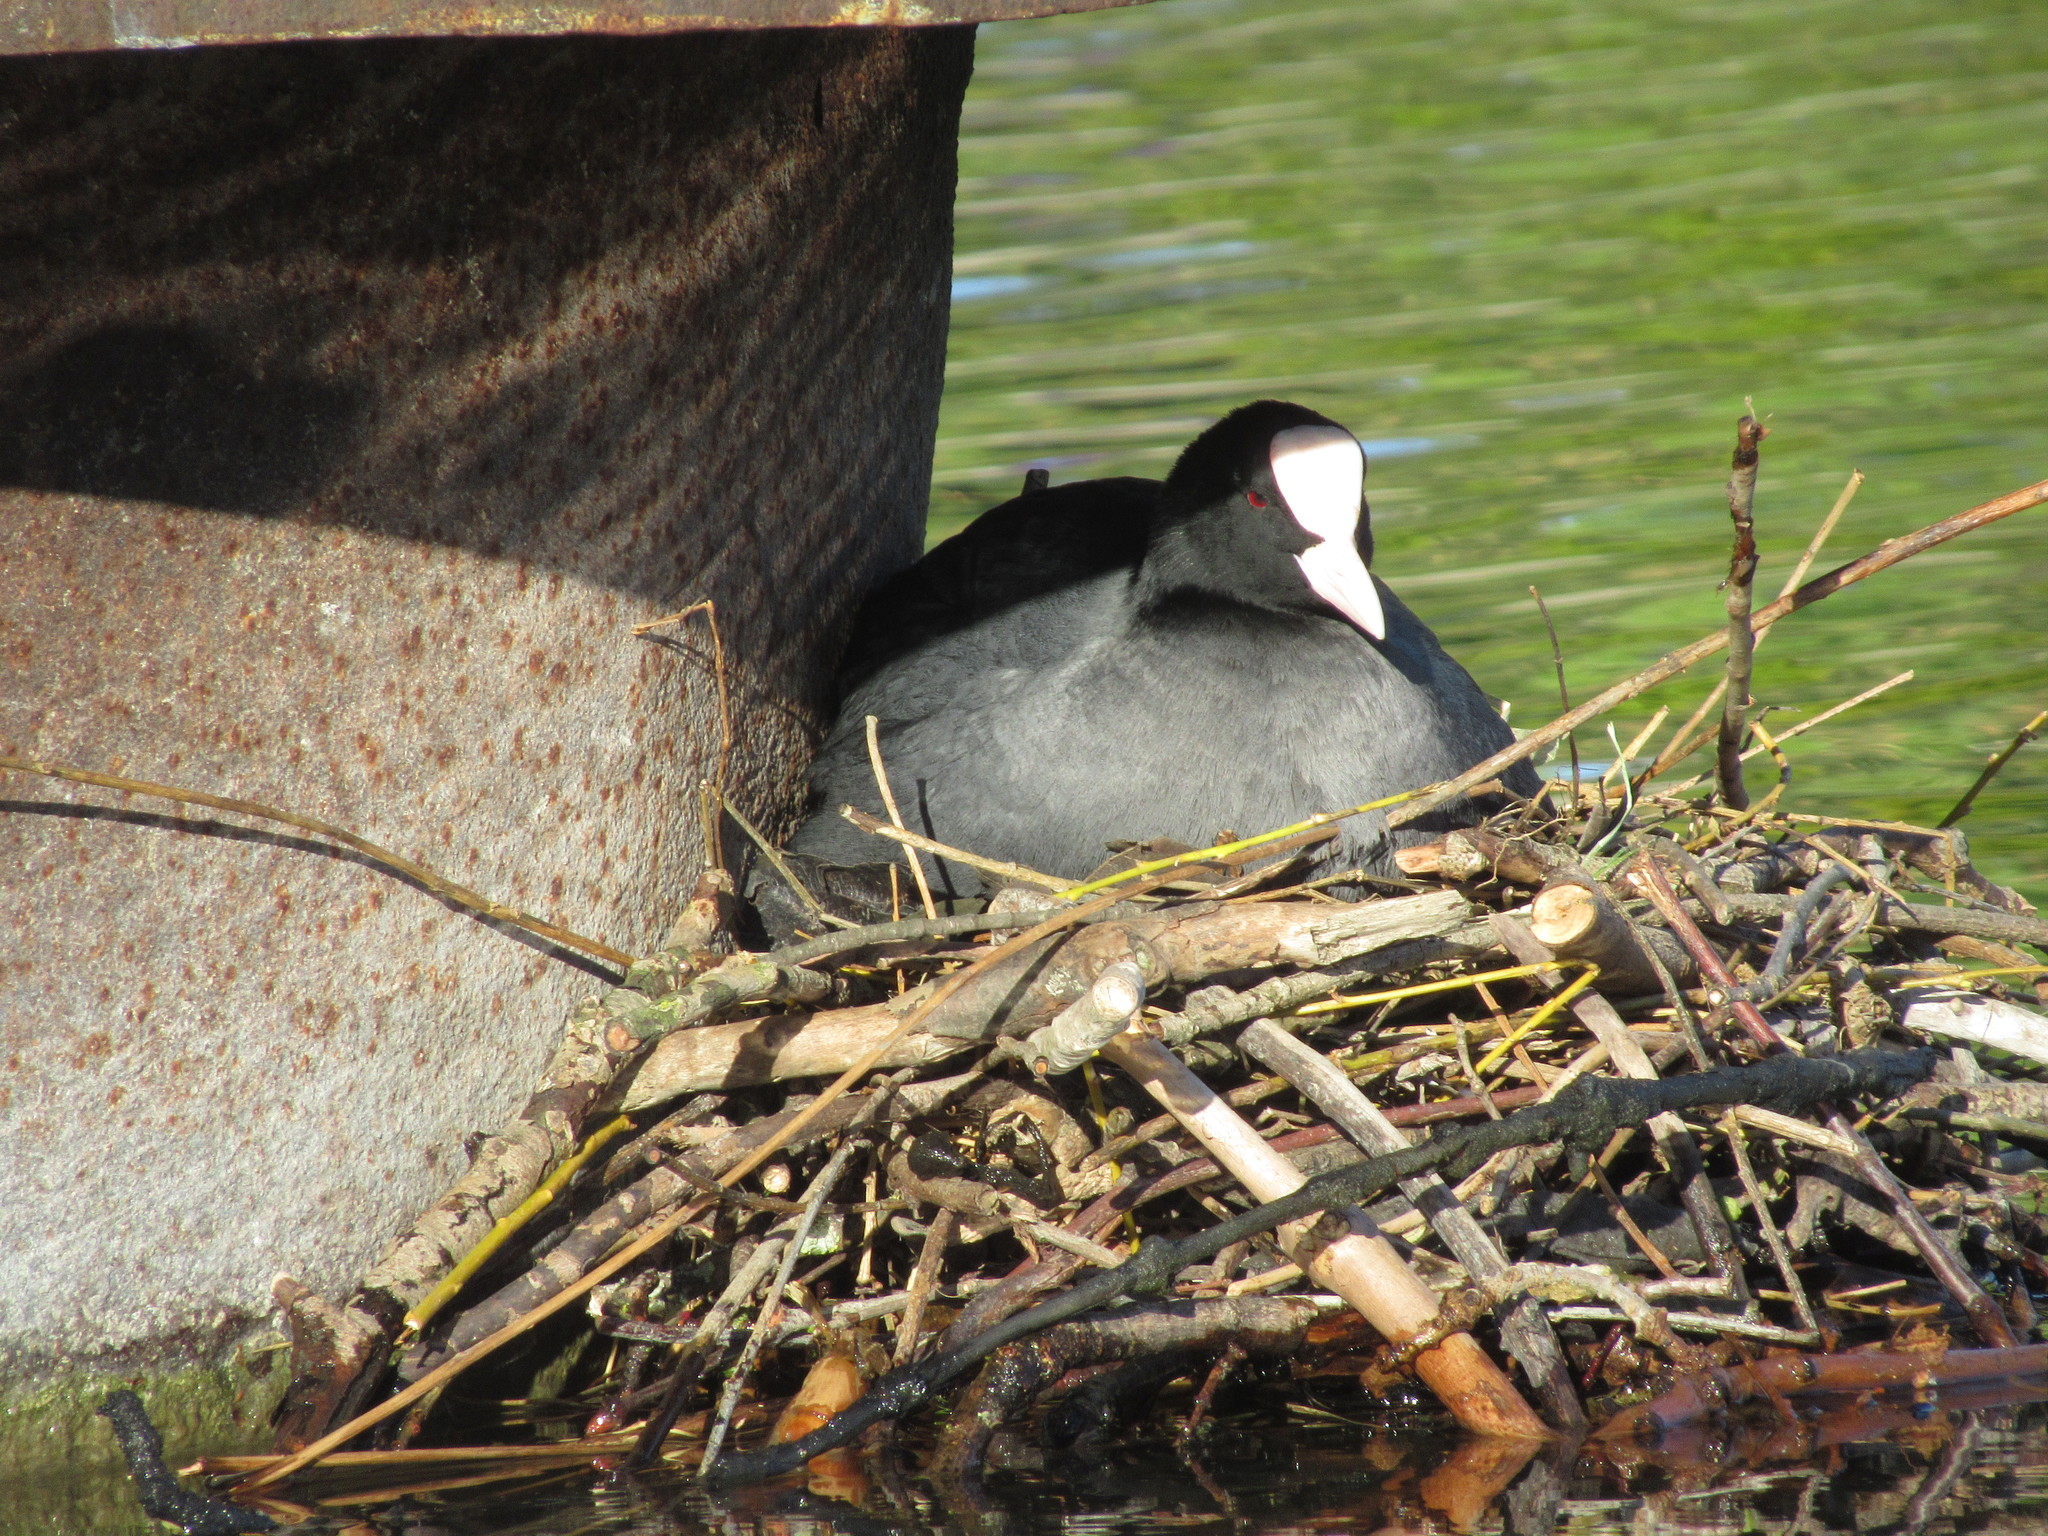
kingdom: Animalia
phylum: Chordata
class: Aves
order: Gruiformes
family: Rallidae
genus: Fulica
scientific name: Fulica atra
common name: Eurasian coot
